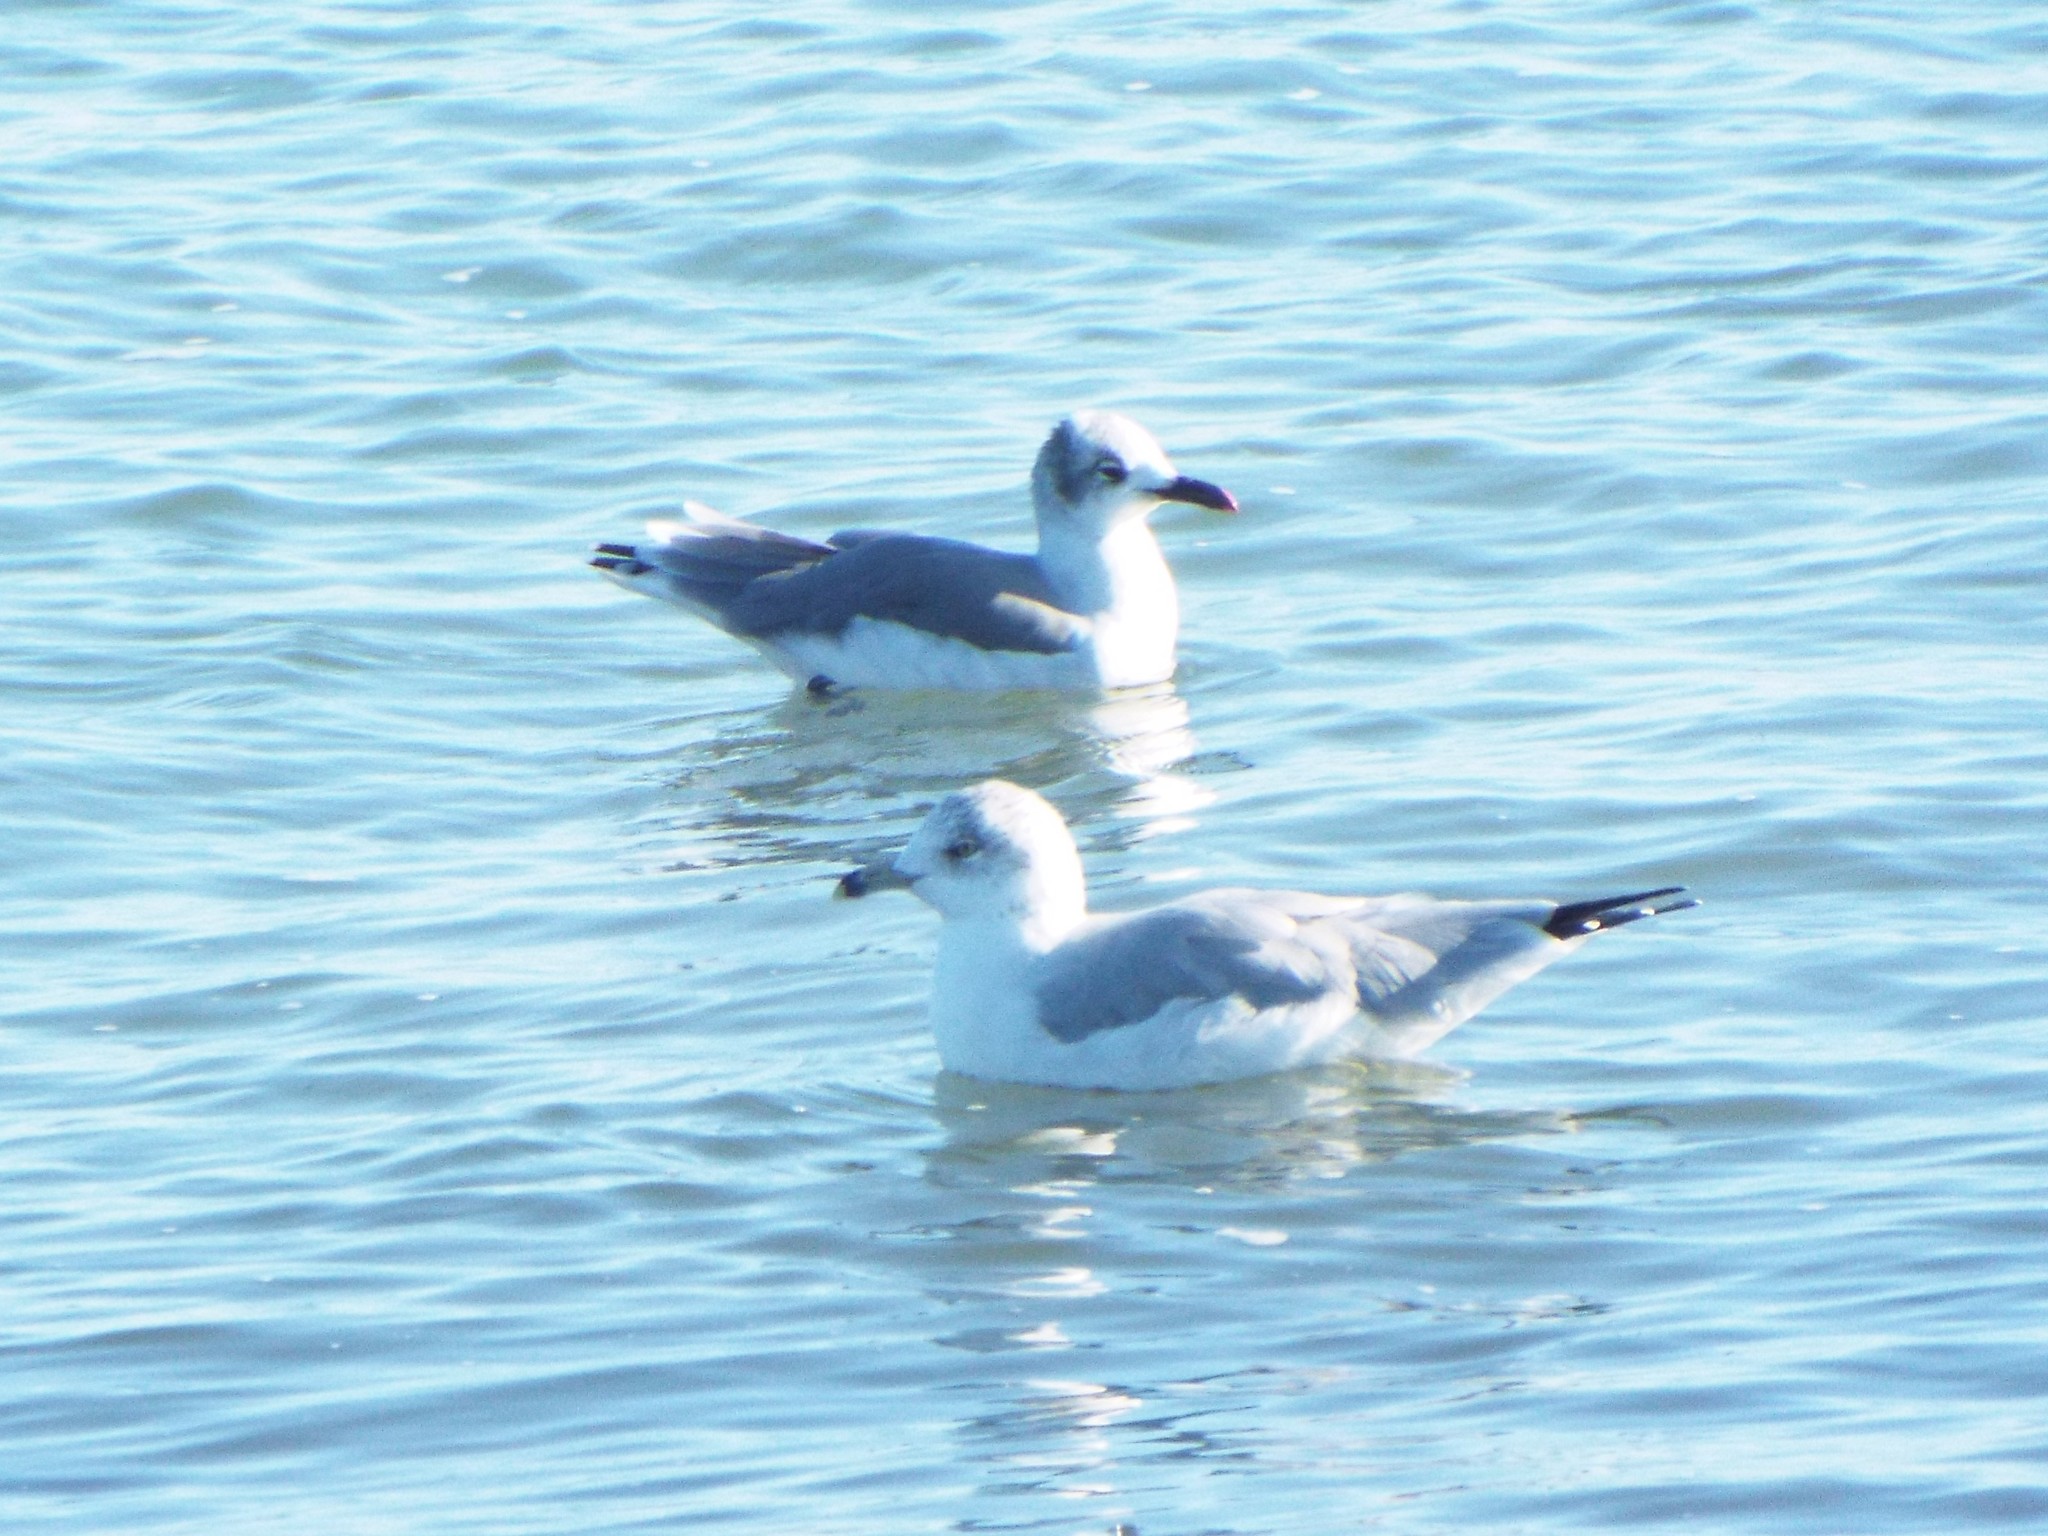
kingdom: Animalia
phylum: Chordata
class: Aves
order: Charadriiformes
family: Laridae
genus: Larus
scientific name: Larus delawarensis
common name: Ring-billed gull
